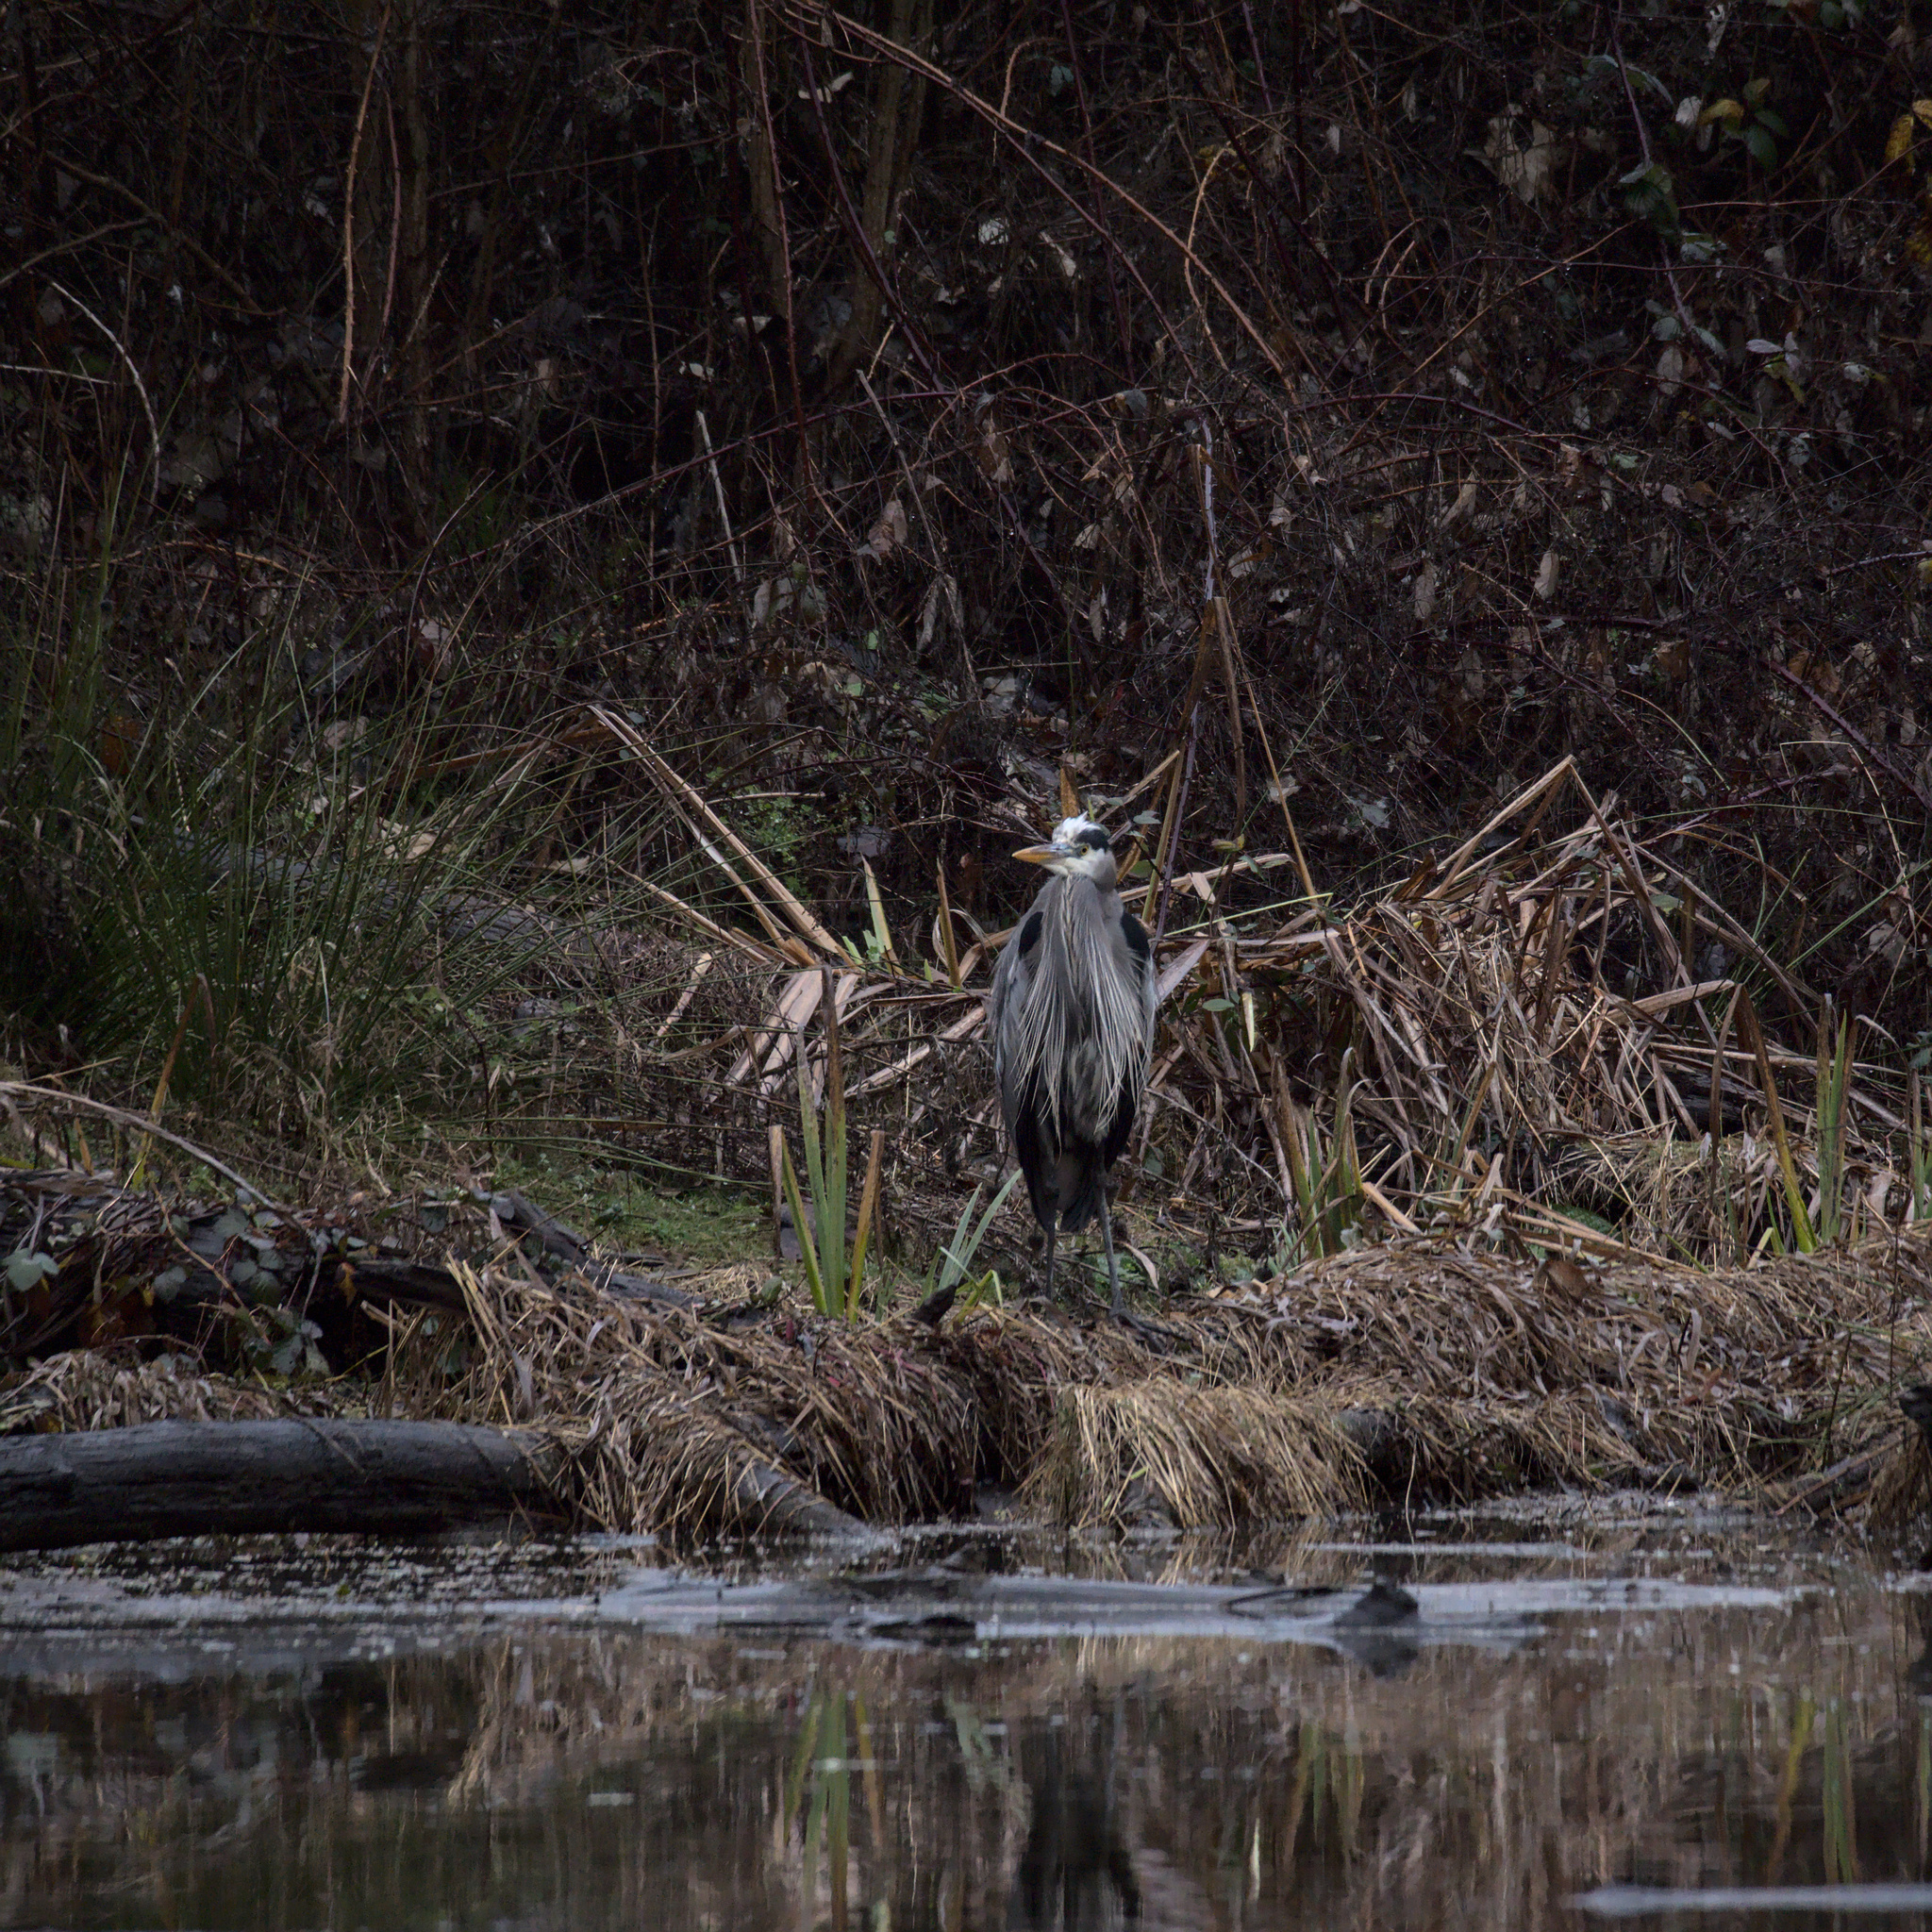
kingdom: Animalia
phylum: Chordata
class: Aves
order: Pelecaniformes
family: Ardeidae
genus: Ardea
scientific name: Ardea herodias
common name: Great blue heron
